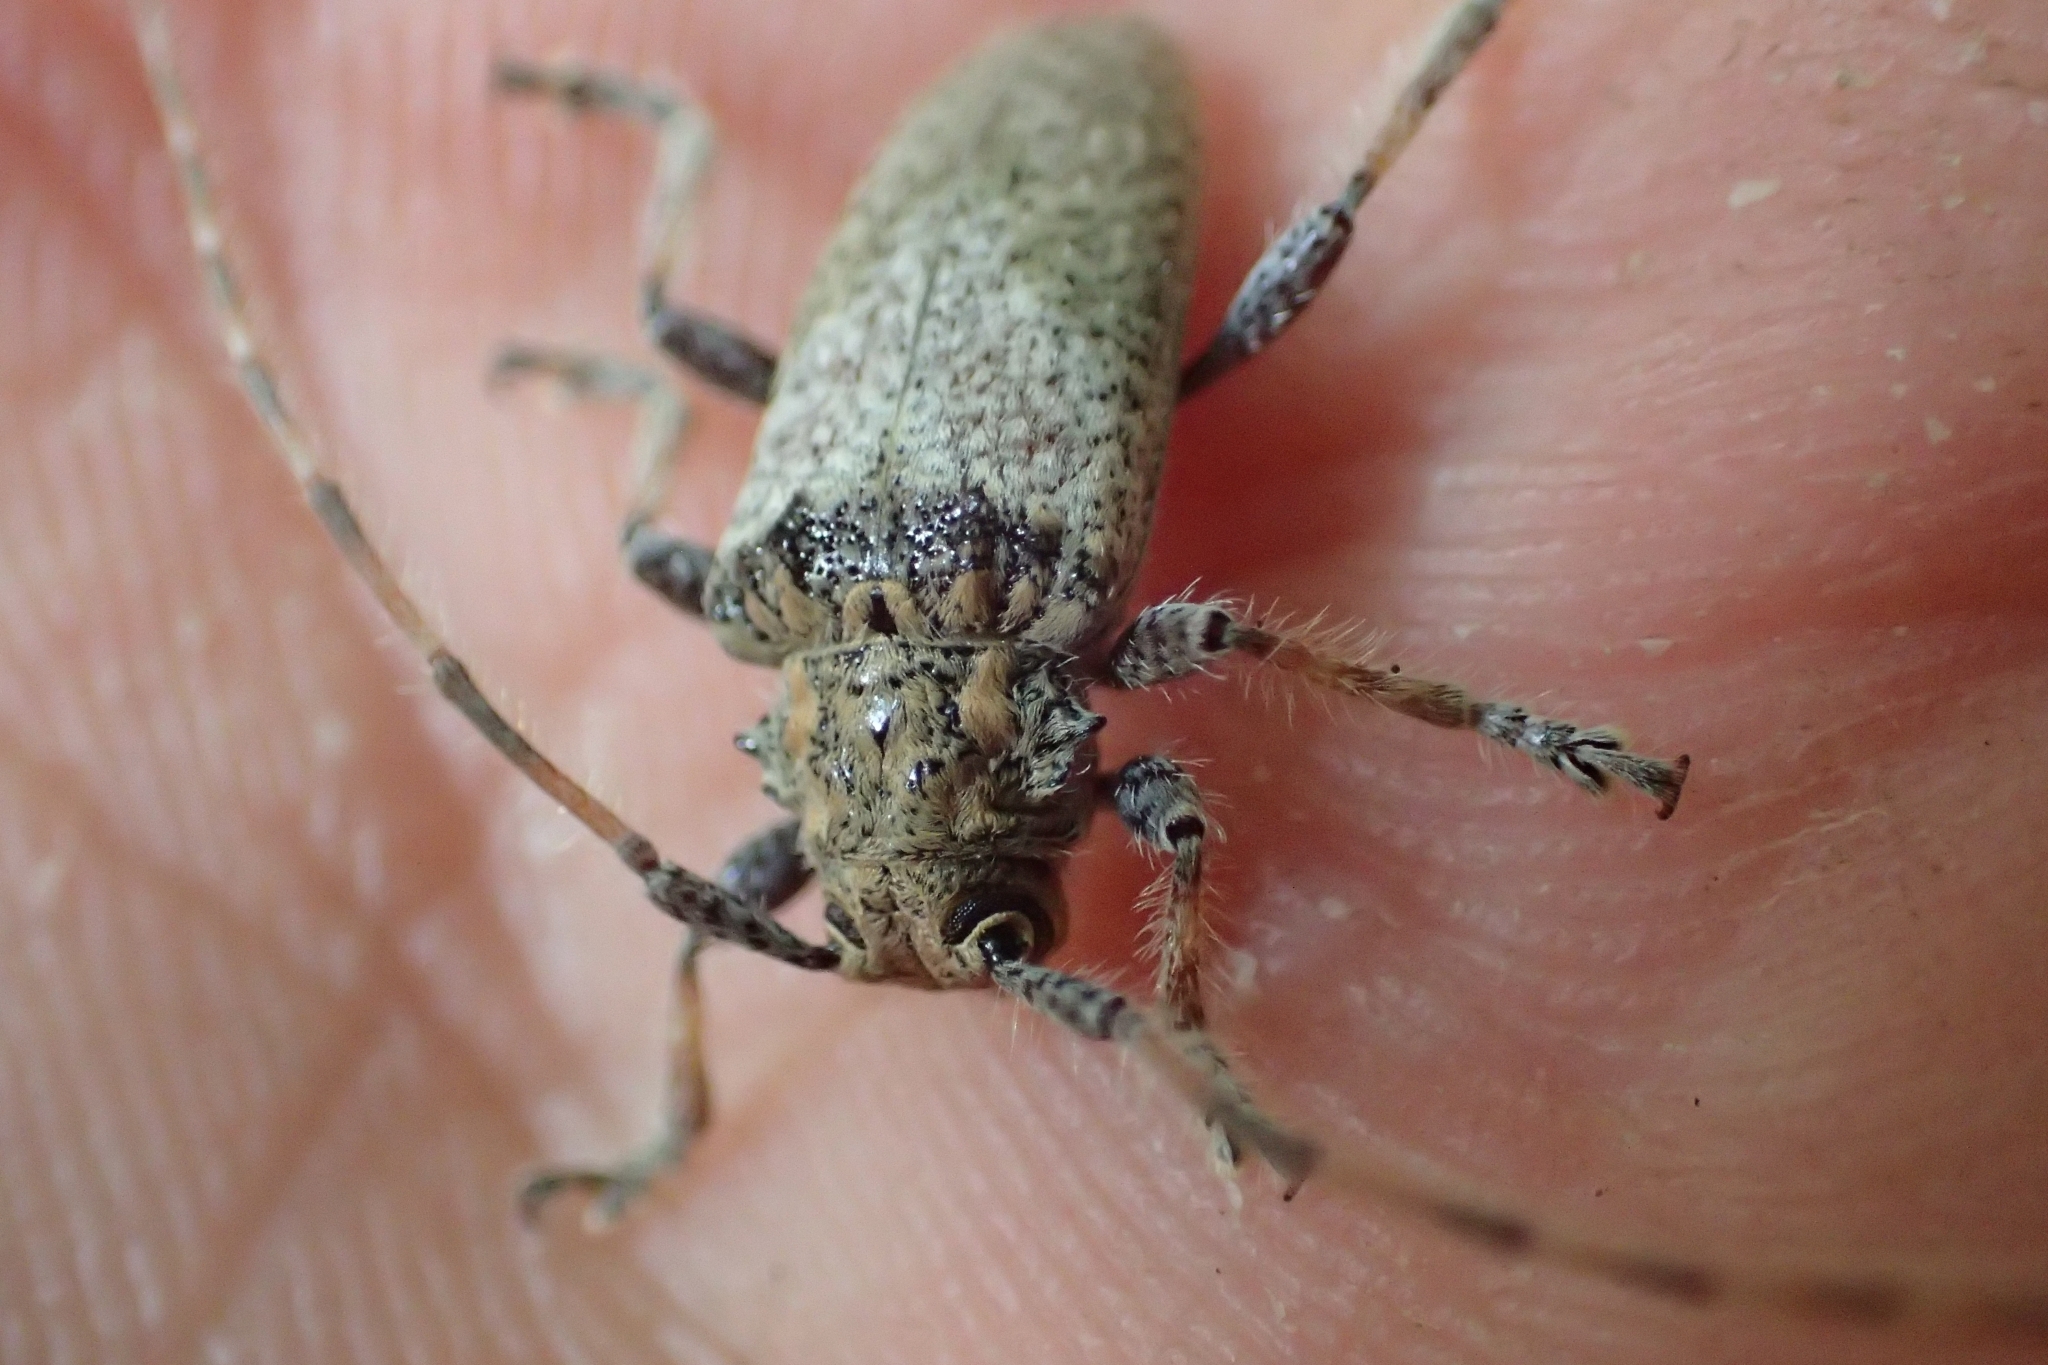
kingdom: Animalia
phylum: Arthropoda
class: Insecta
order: Coleoptera
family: Cerambycidae
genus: Polyacanthia
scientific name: Polyacanthia flavipes
